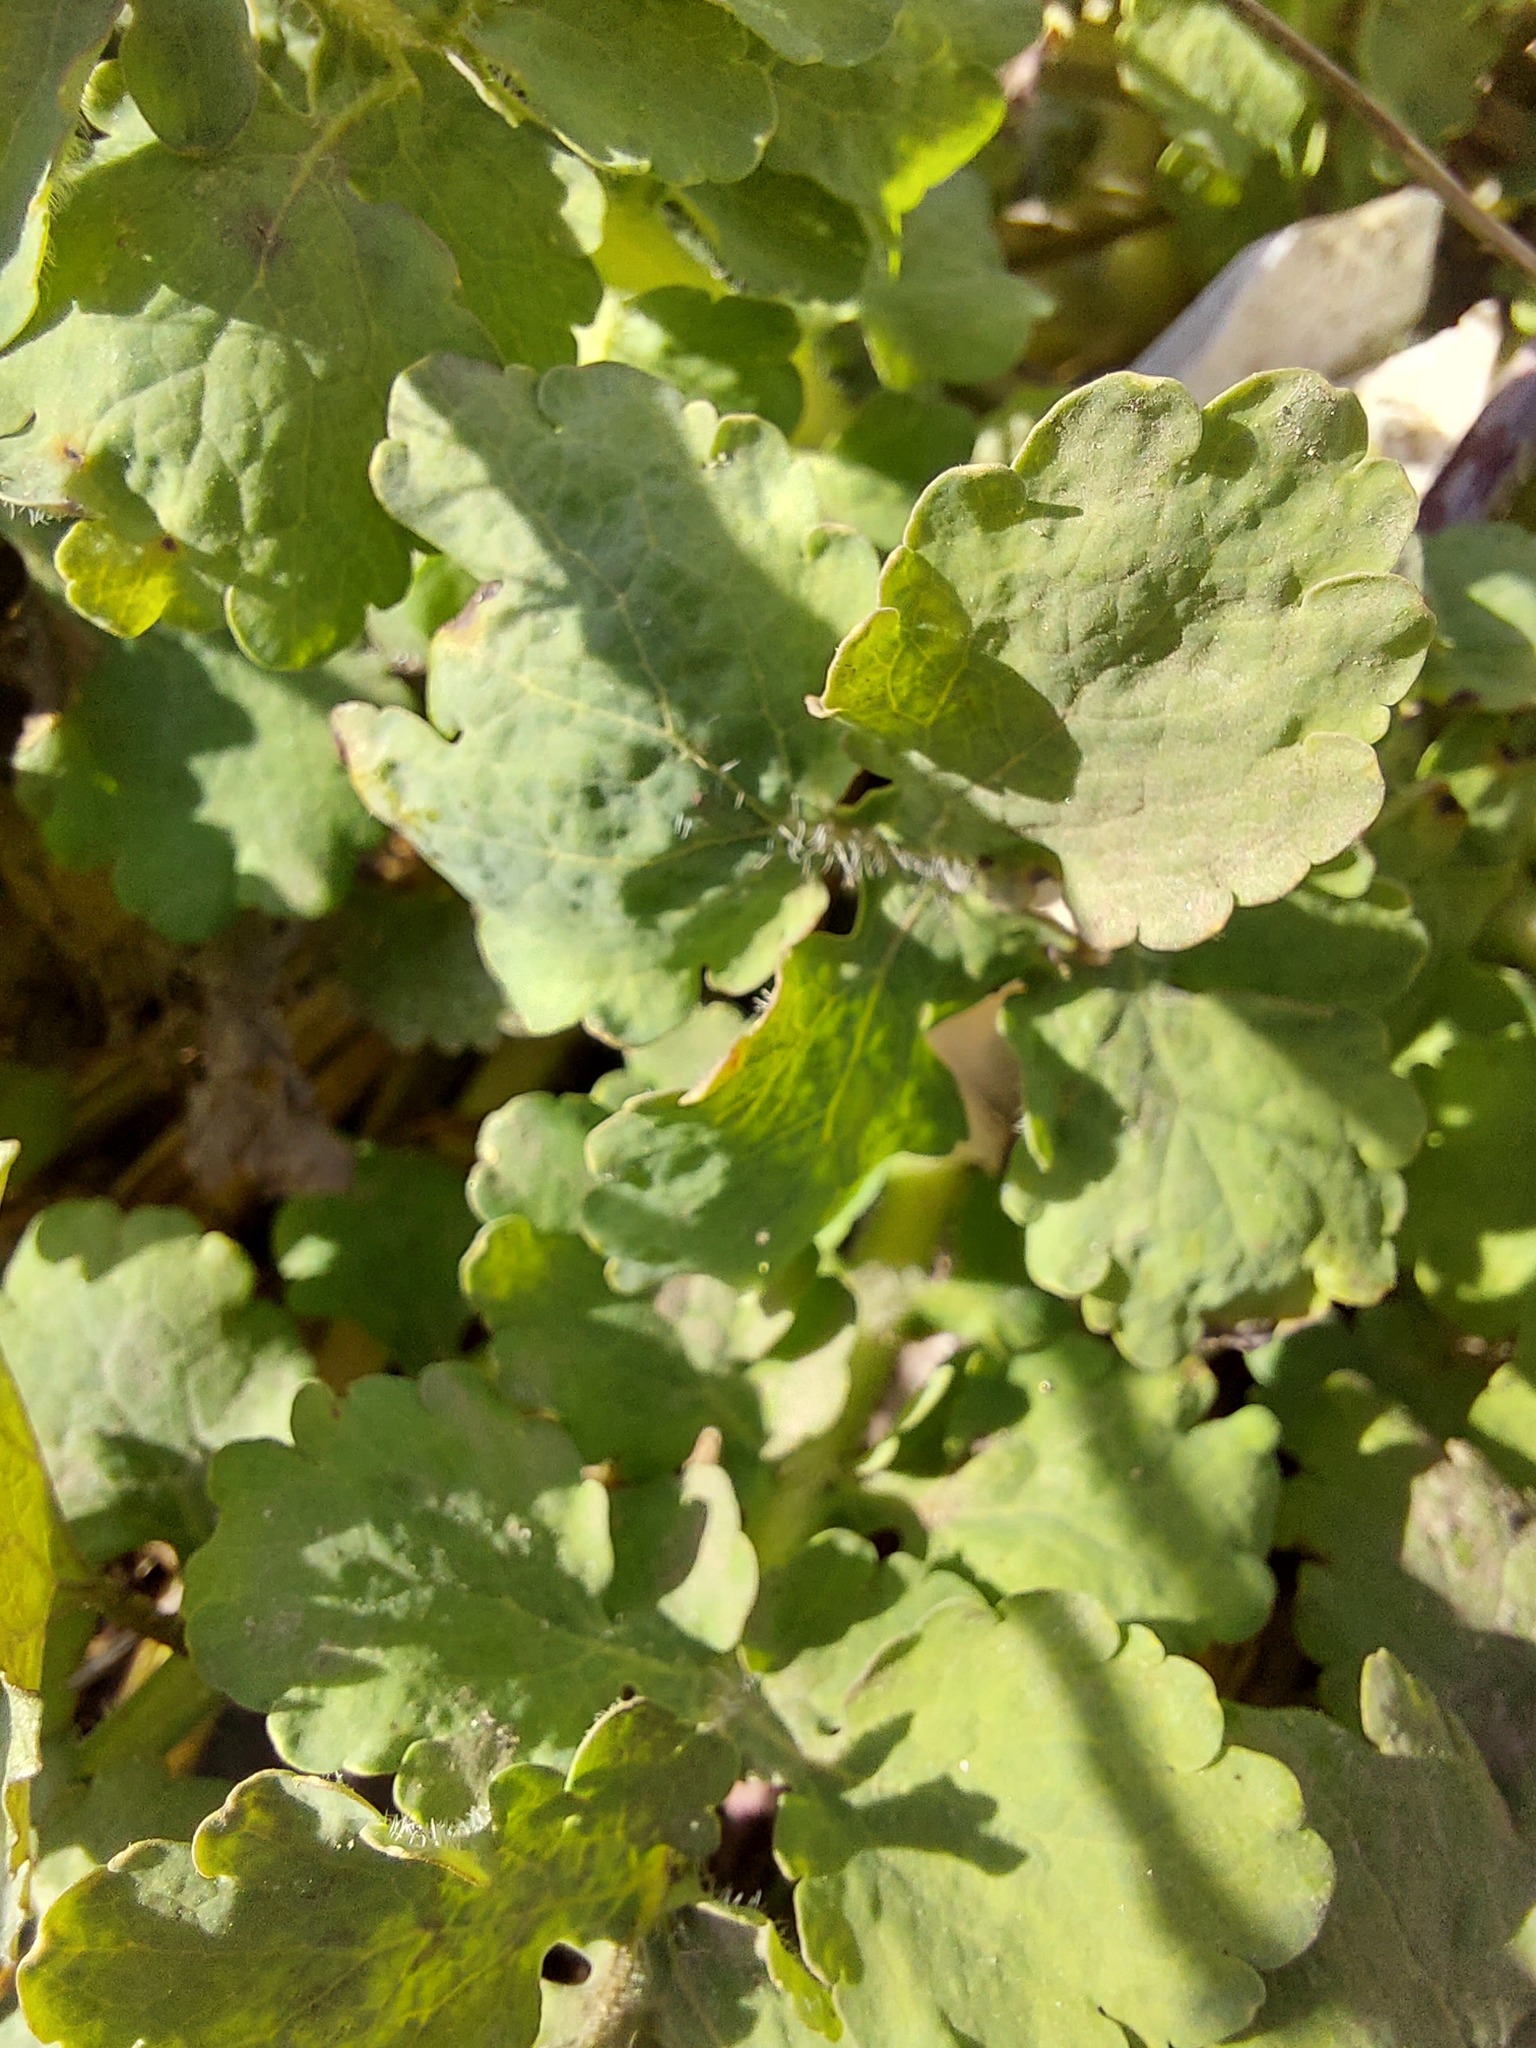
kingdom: Plantae
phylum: Tracheophyta
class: Magnoliopsida
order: Ranunculales
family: Papaveraceae
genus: Chelidonium
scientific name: Chelidonium majus
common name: Greater celandine
